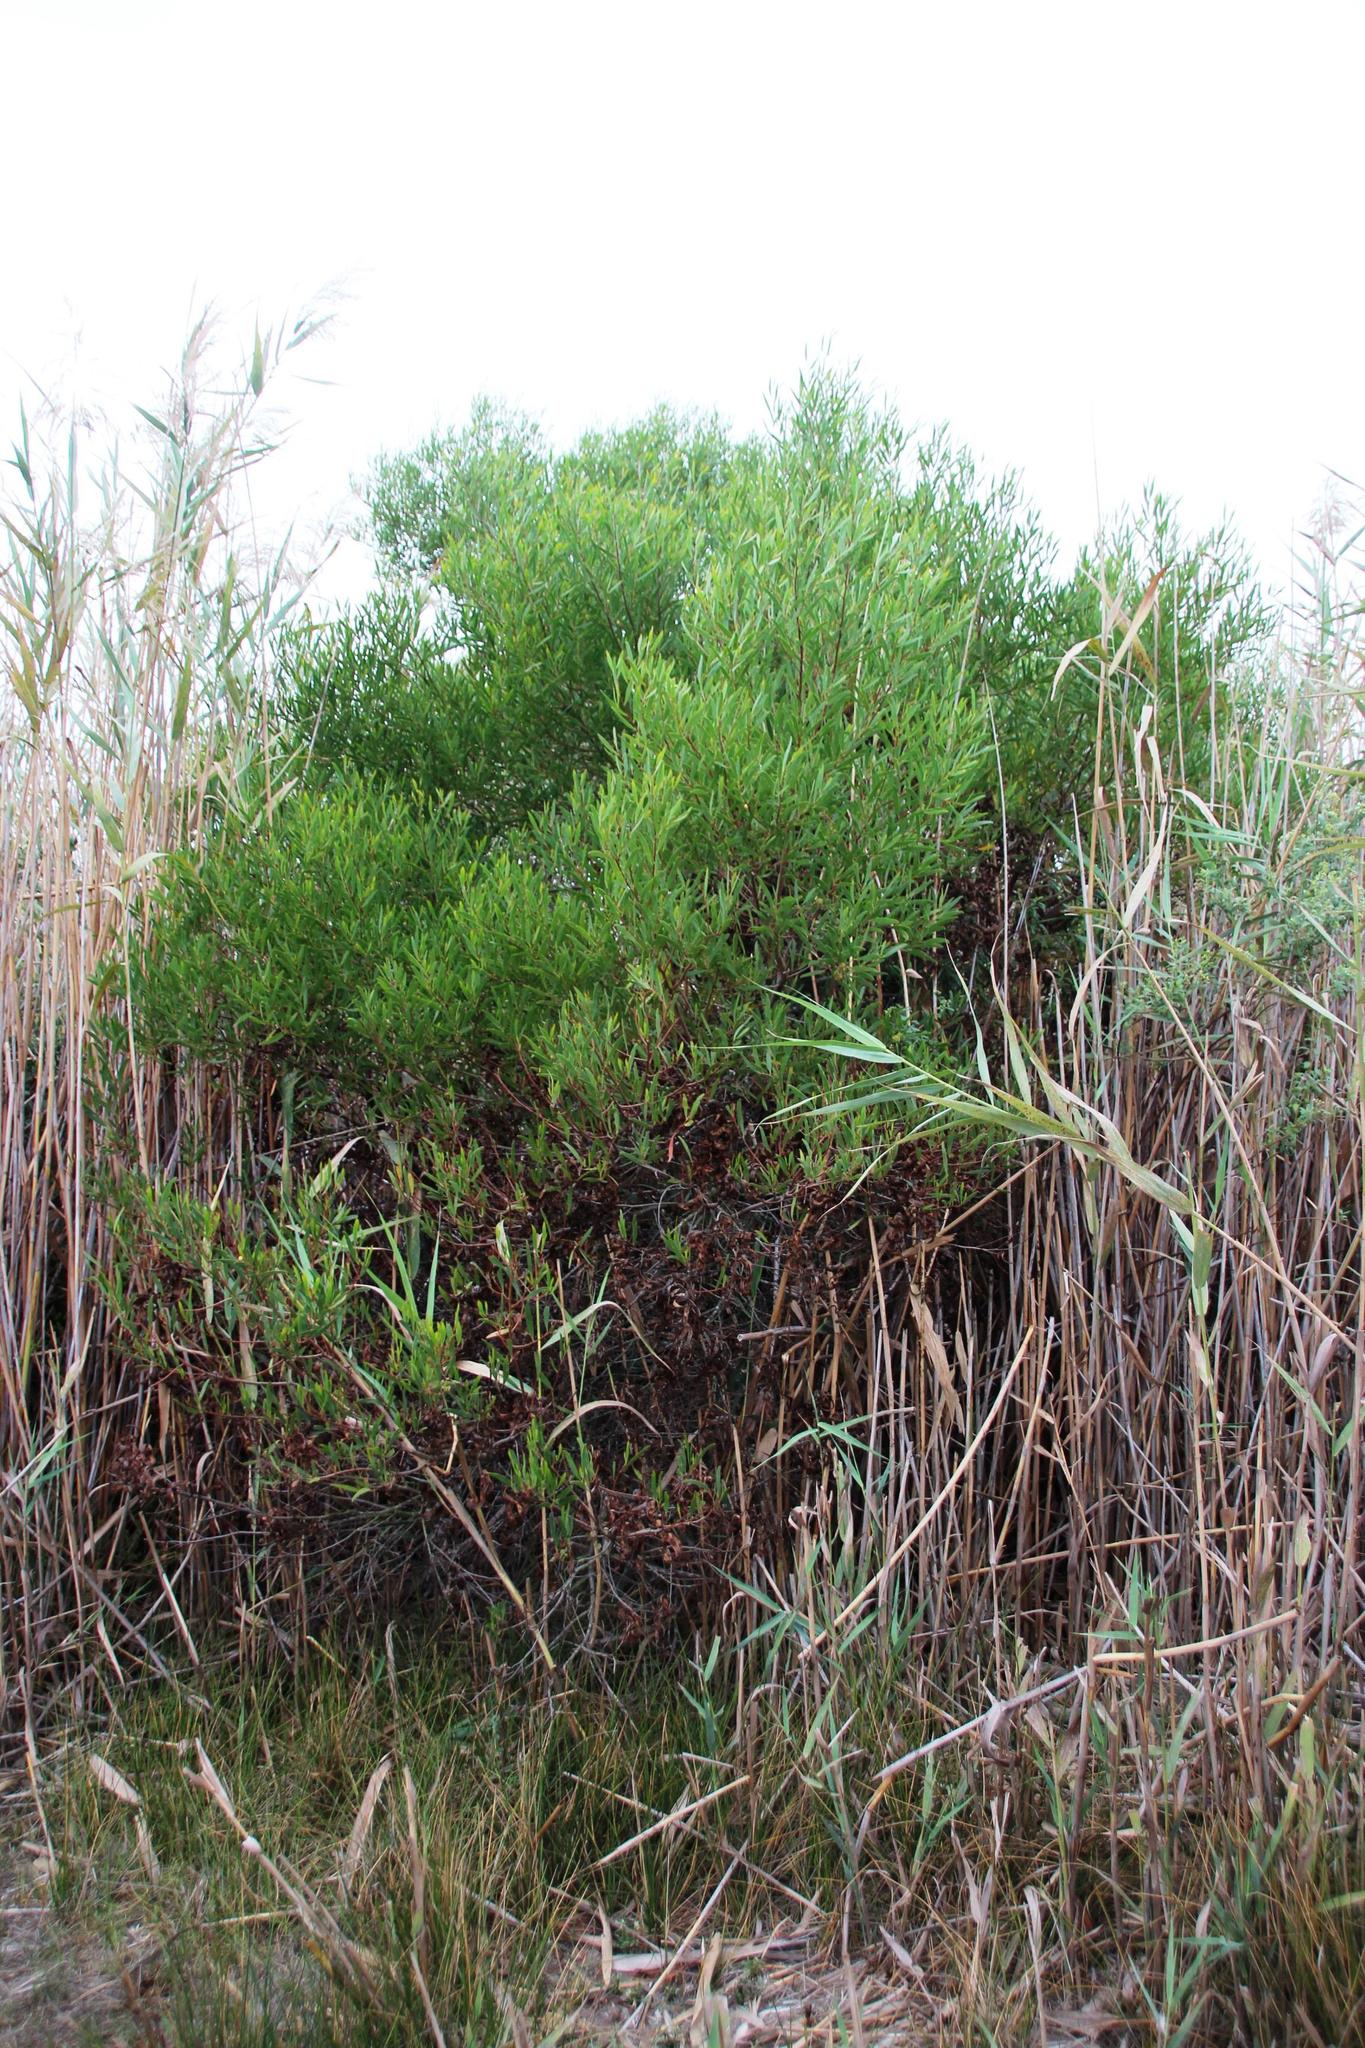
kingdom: Plantae
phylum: Tracheophyta
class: Magnoliopsida
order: Fabales
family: Fabaceae
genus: Acacia
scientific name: Acacia cyclops
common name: Coastal wattle
